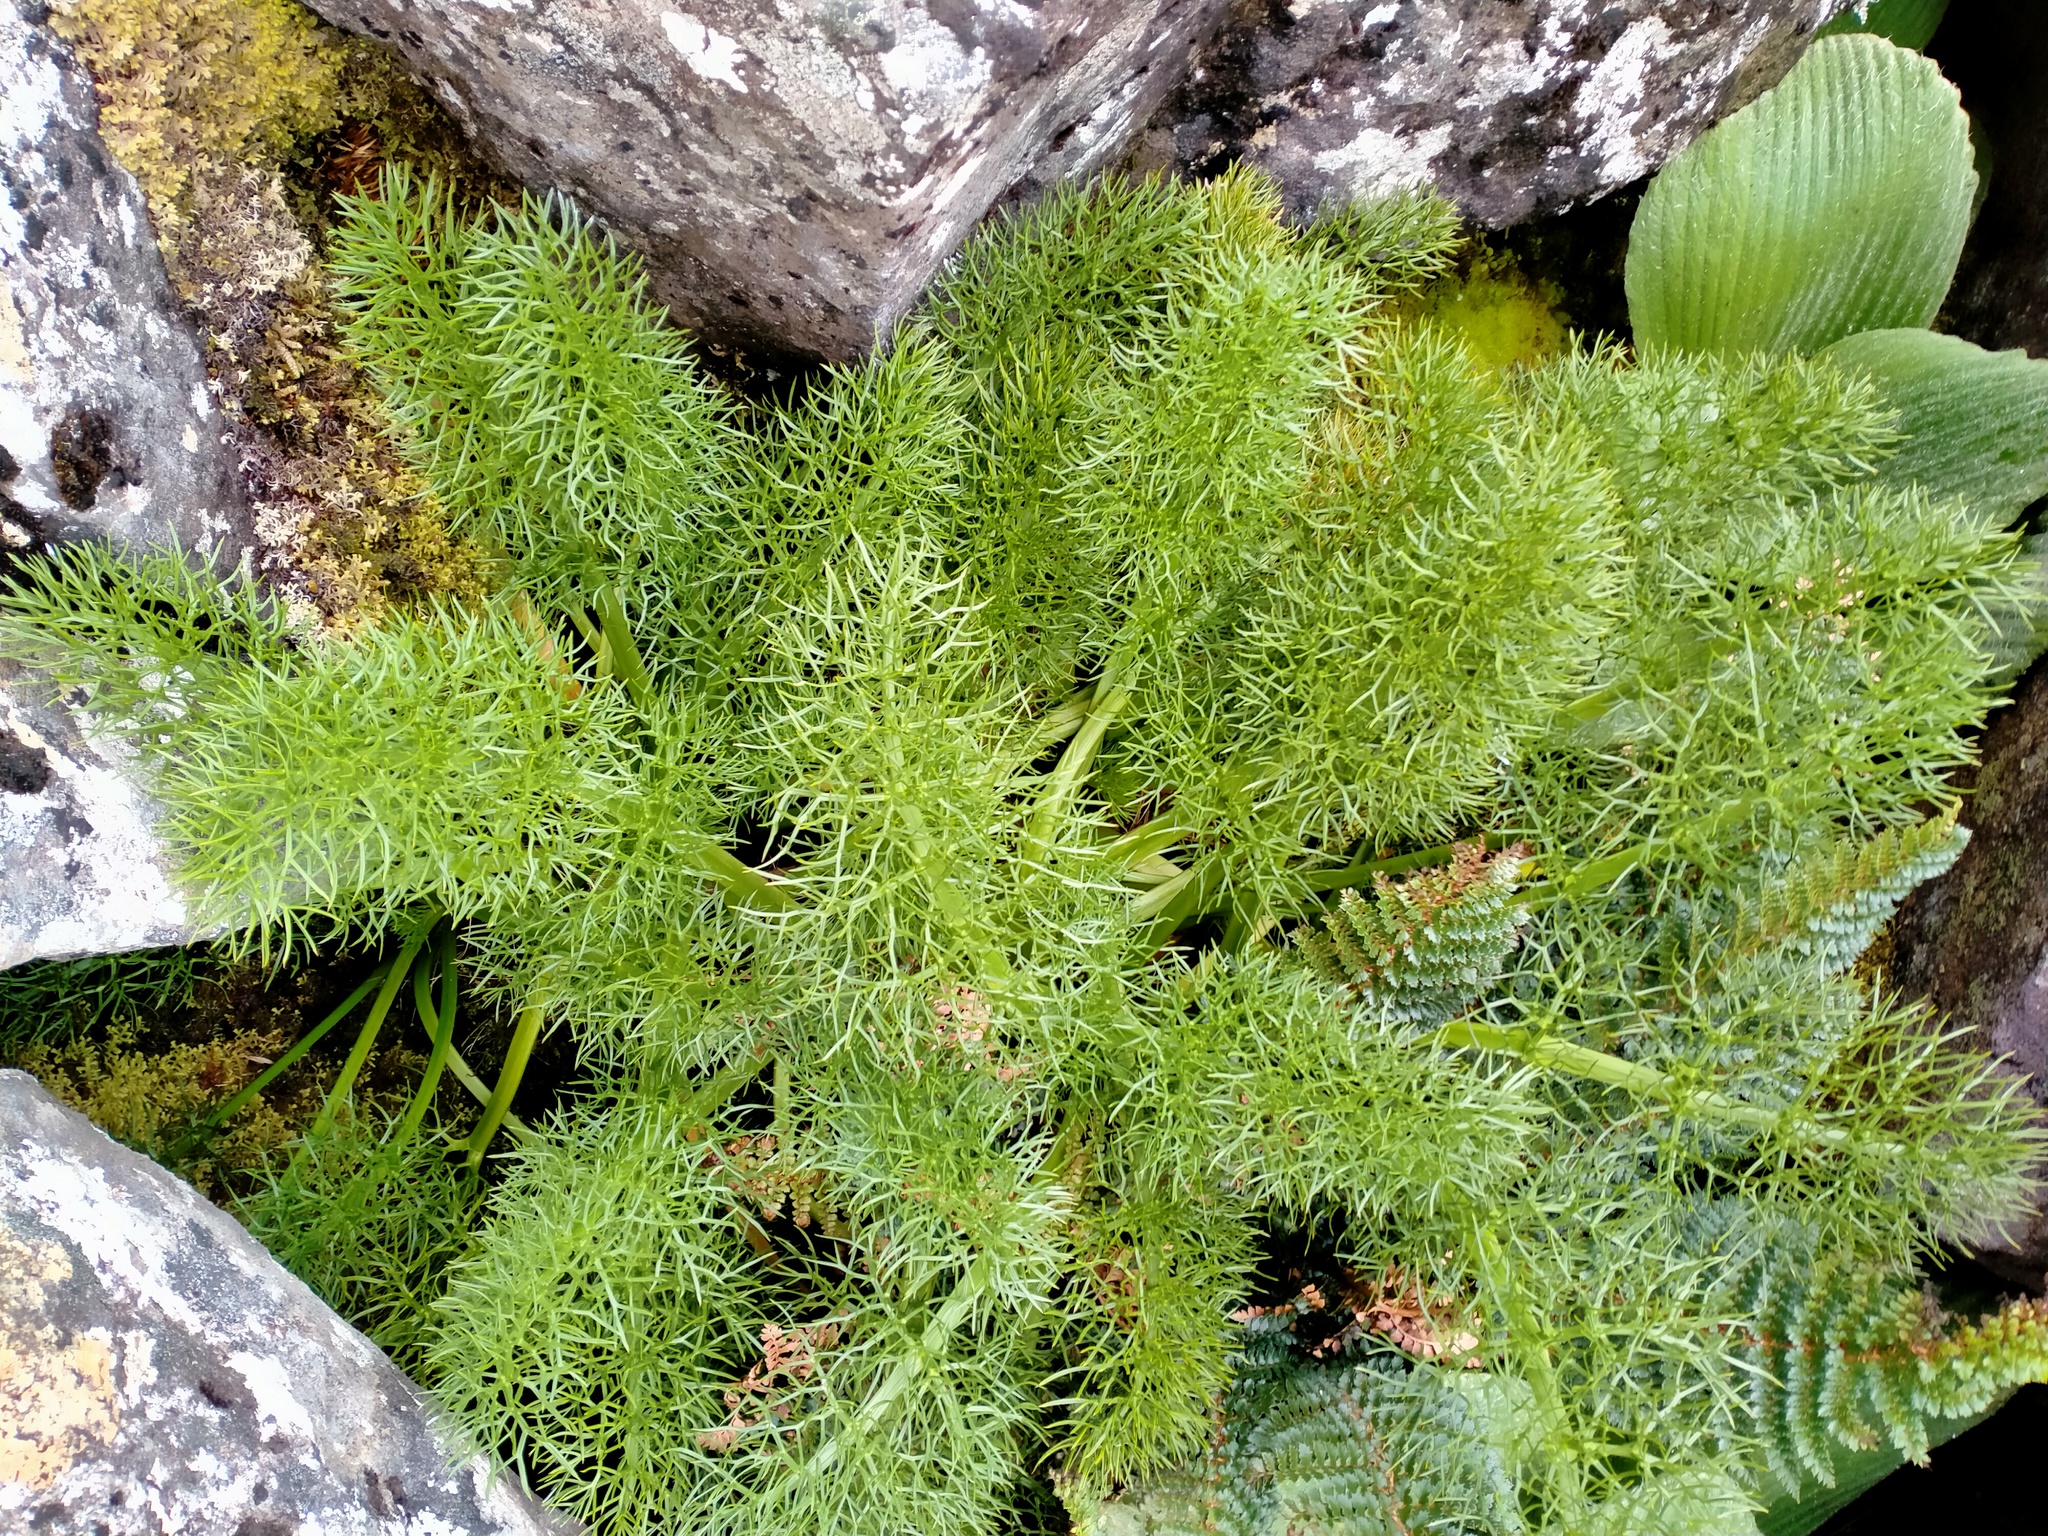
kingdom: Plantae
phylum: Tracheophyta
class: Magnoliopsida
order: Apiales
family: Apiaceae
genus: Anisotome
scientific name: Anisotome antipoda
